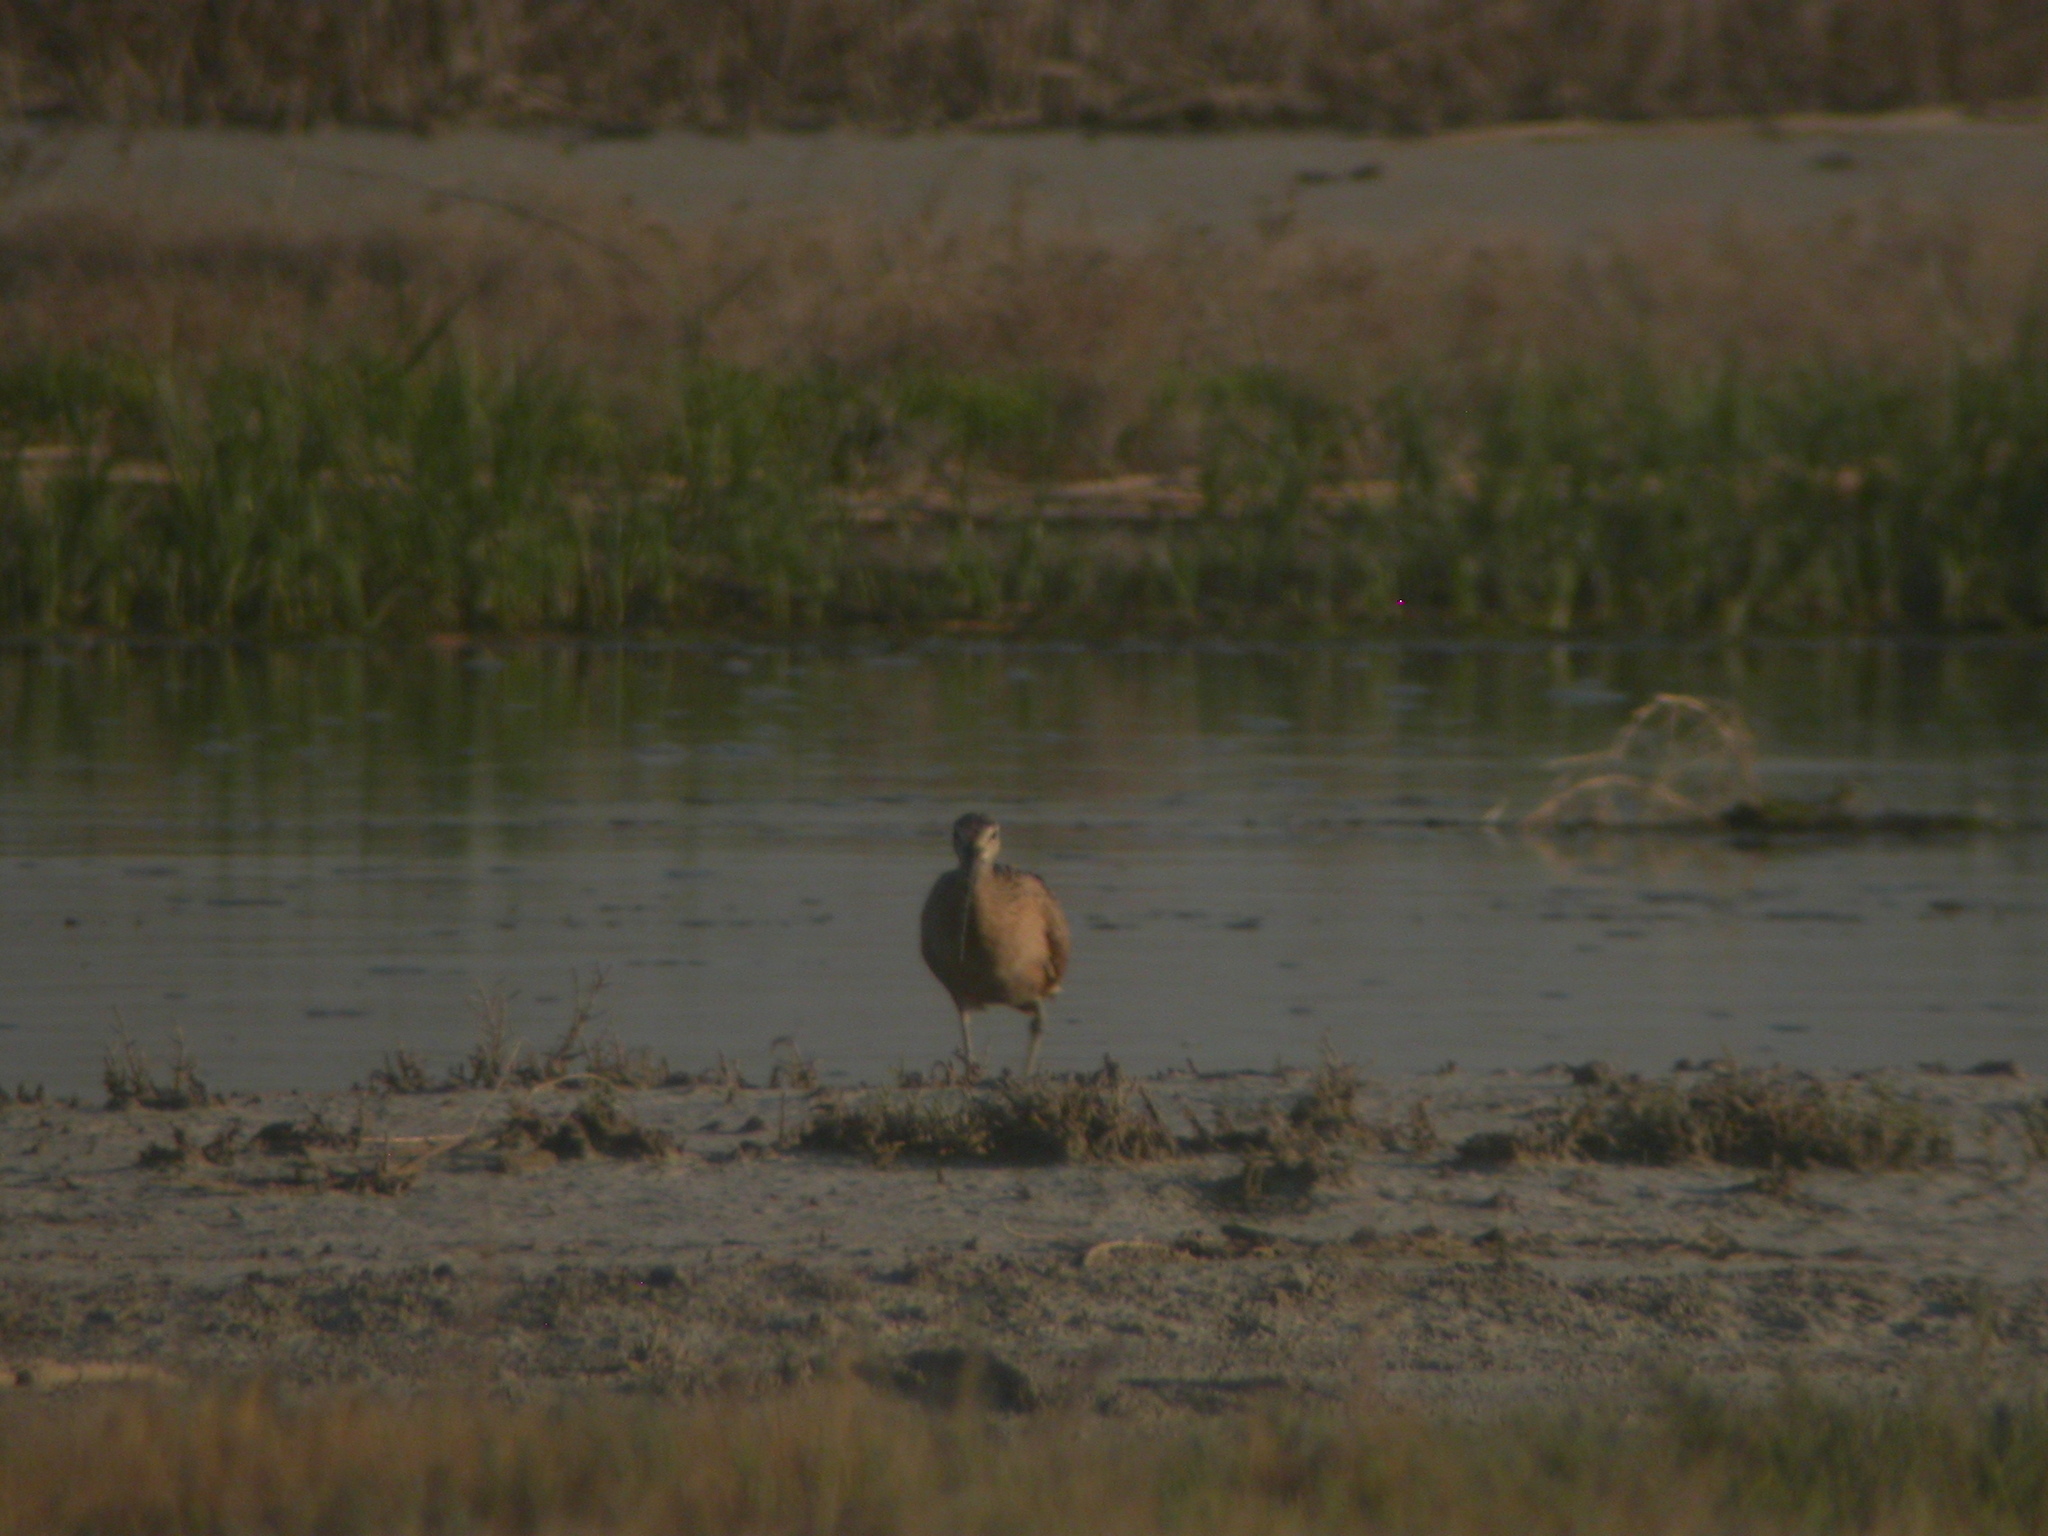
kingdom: Animalia
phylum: Chordata
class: Aves
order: Charadriiformes
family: Scolopacidae
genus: Numenius
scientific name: Numenius americanus
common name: Long-billed curlew
